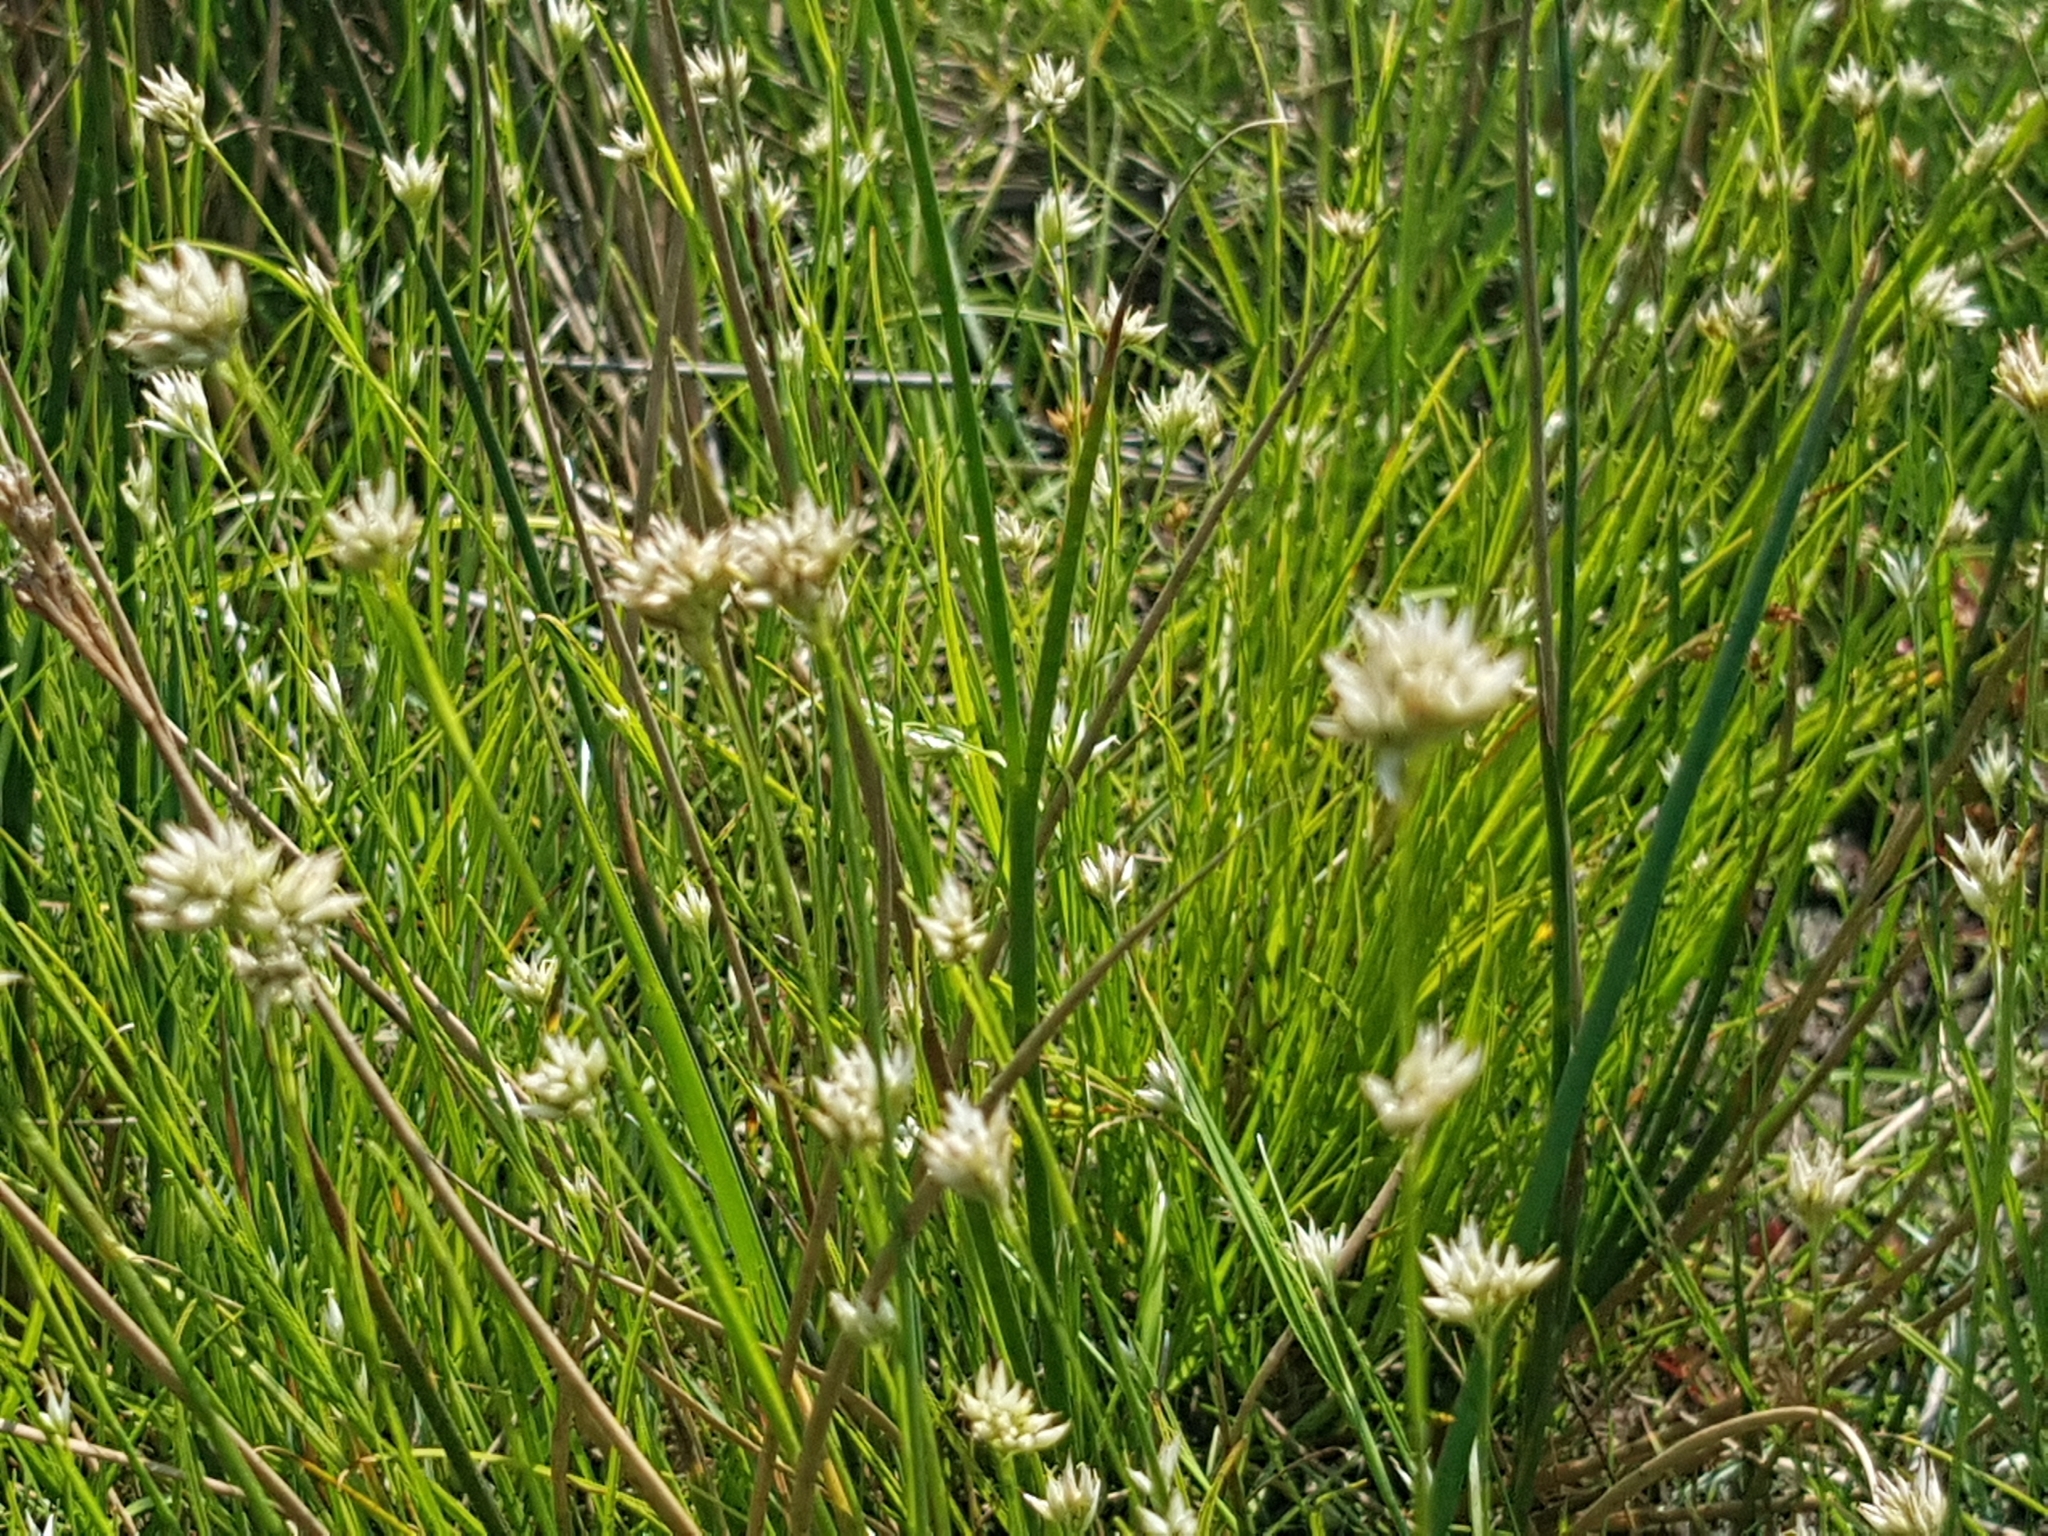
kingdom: Plantae
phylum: Tracheophyta
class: Liliopsida
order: Poales
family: Cyperaceae
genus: Rhynchospora
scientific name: Rhynchospora alba
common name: White beak-sedge
